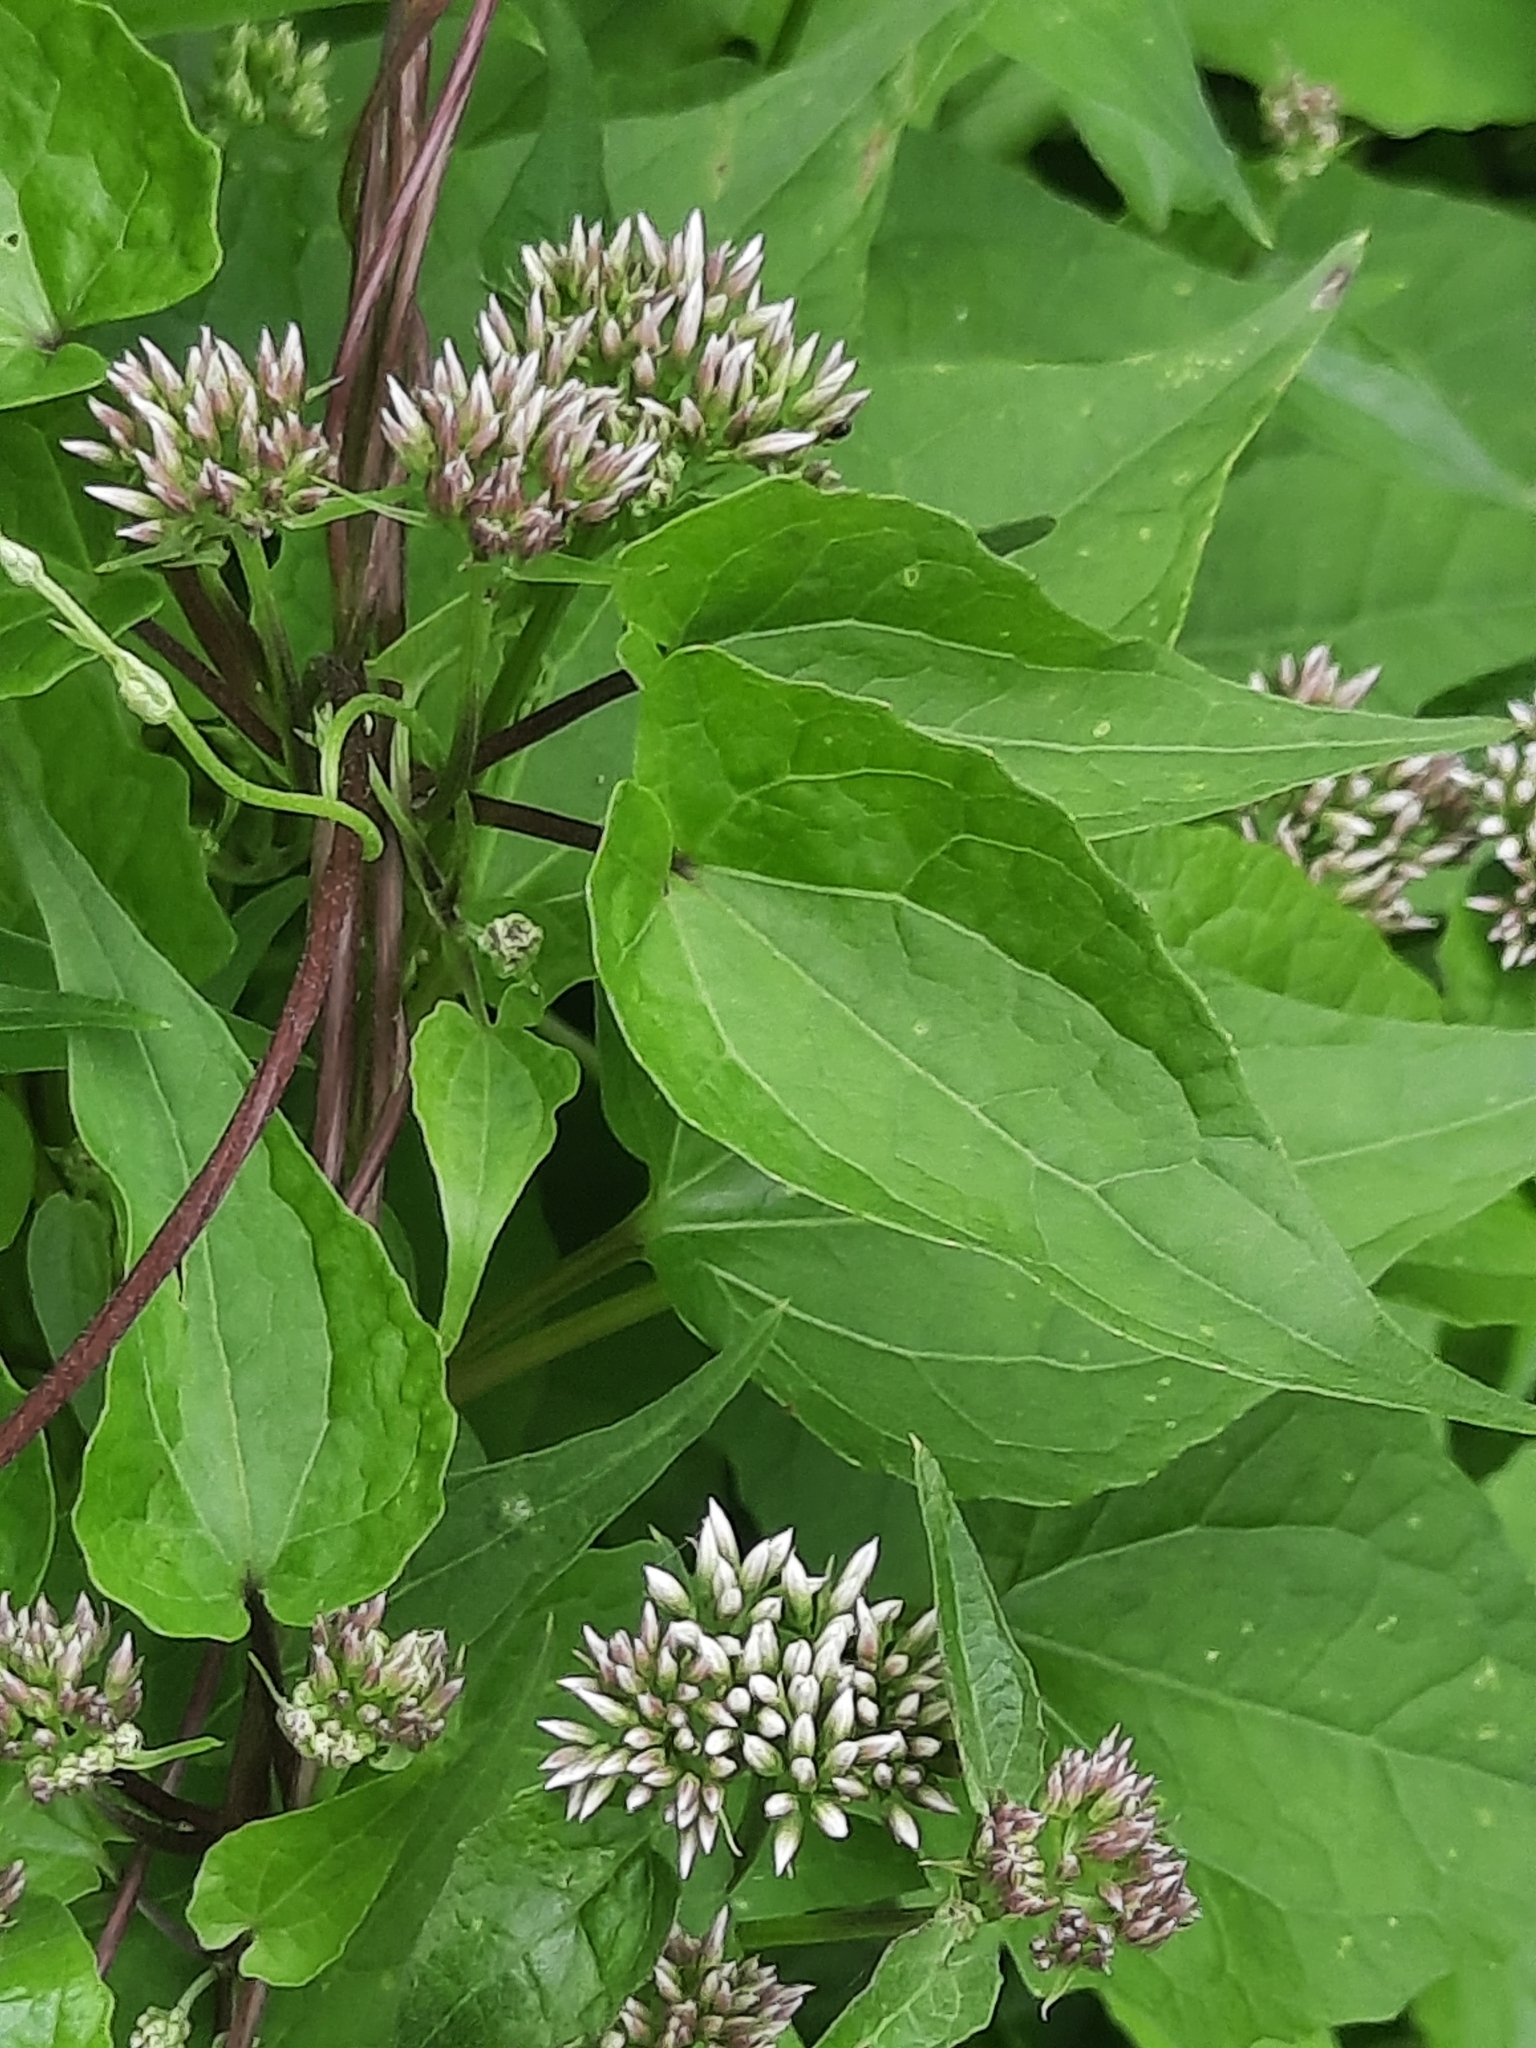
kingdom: Plantae
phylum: Tracheophyta
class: Magnoliopsida
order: Asterales
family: Asteraceae
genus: Mikania
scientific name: Mikania scandens
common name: Climbing hempvine
